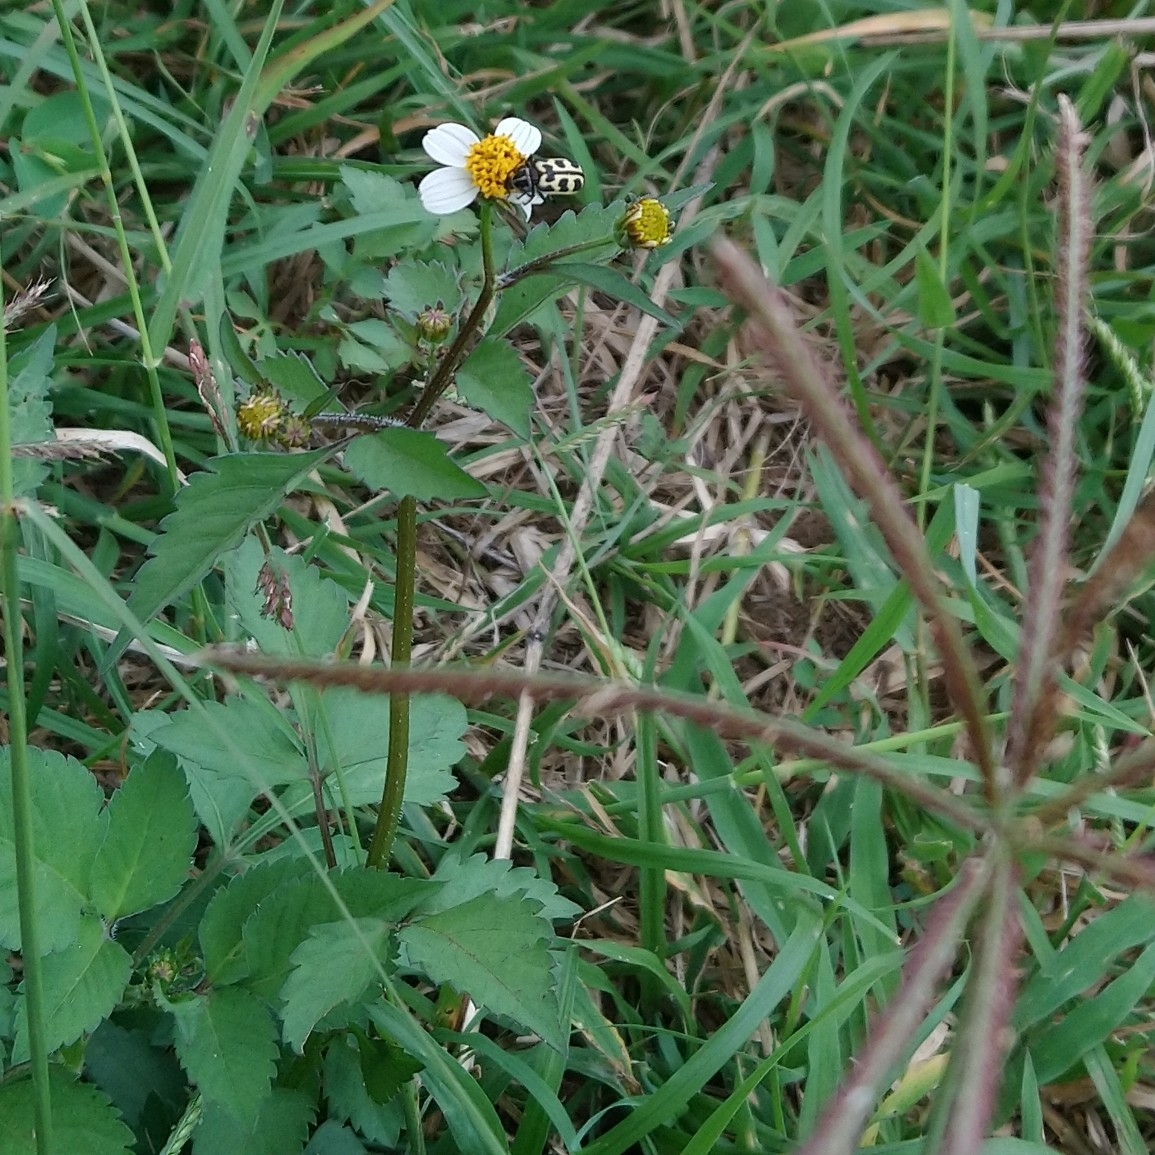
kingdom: Plantae
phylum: Tracheophyta
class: Magnoliopsida
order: Asterales
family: Asteraceae
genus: Bidens
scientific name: Bidens pilosa
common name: Black-jack
